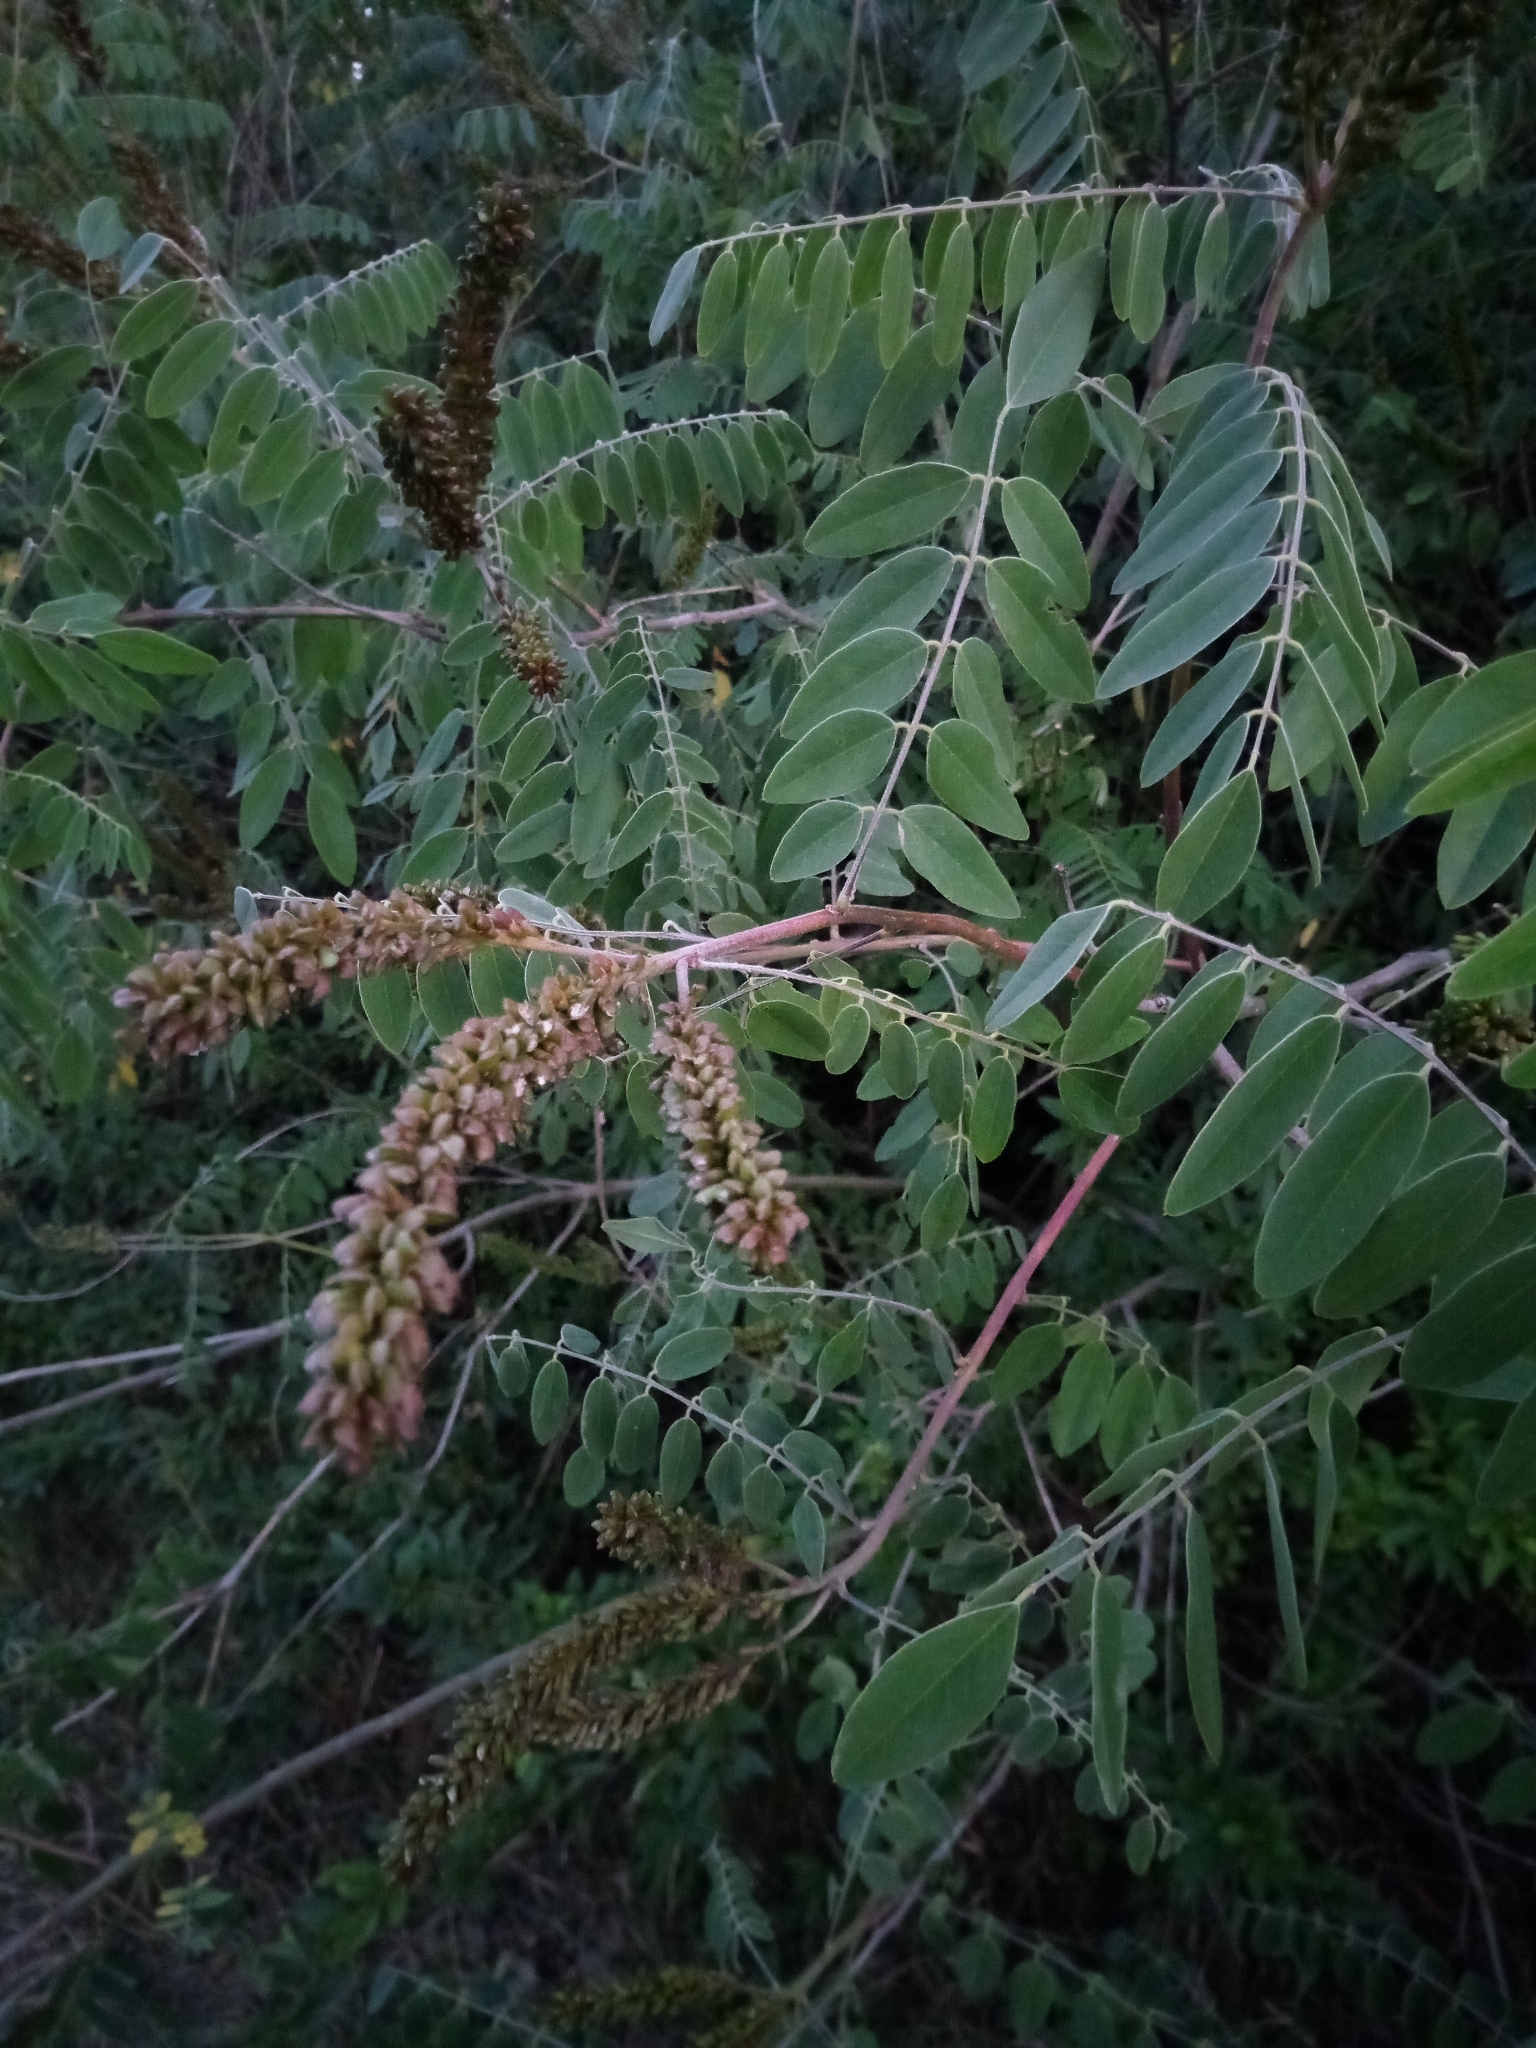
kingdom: Plantae
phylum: Tracheophyta
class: Magnoliopsida
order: Fabales
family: Fabaceae
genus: Amorpha
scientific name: Amorpha fruticosa
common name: False indigo
